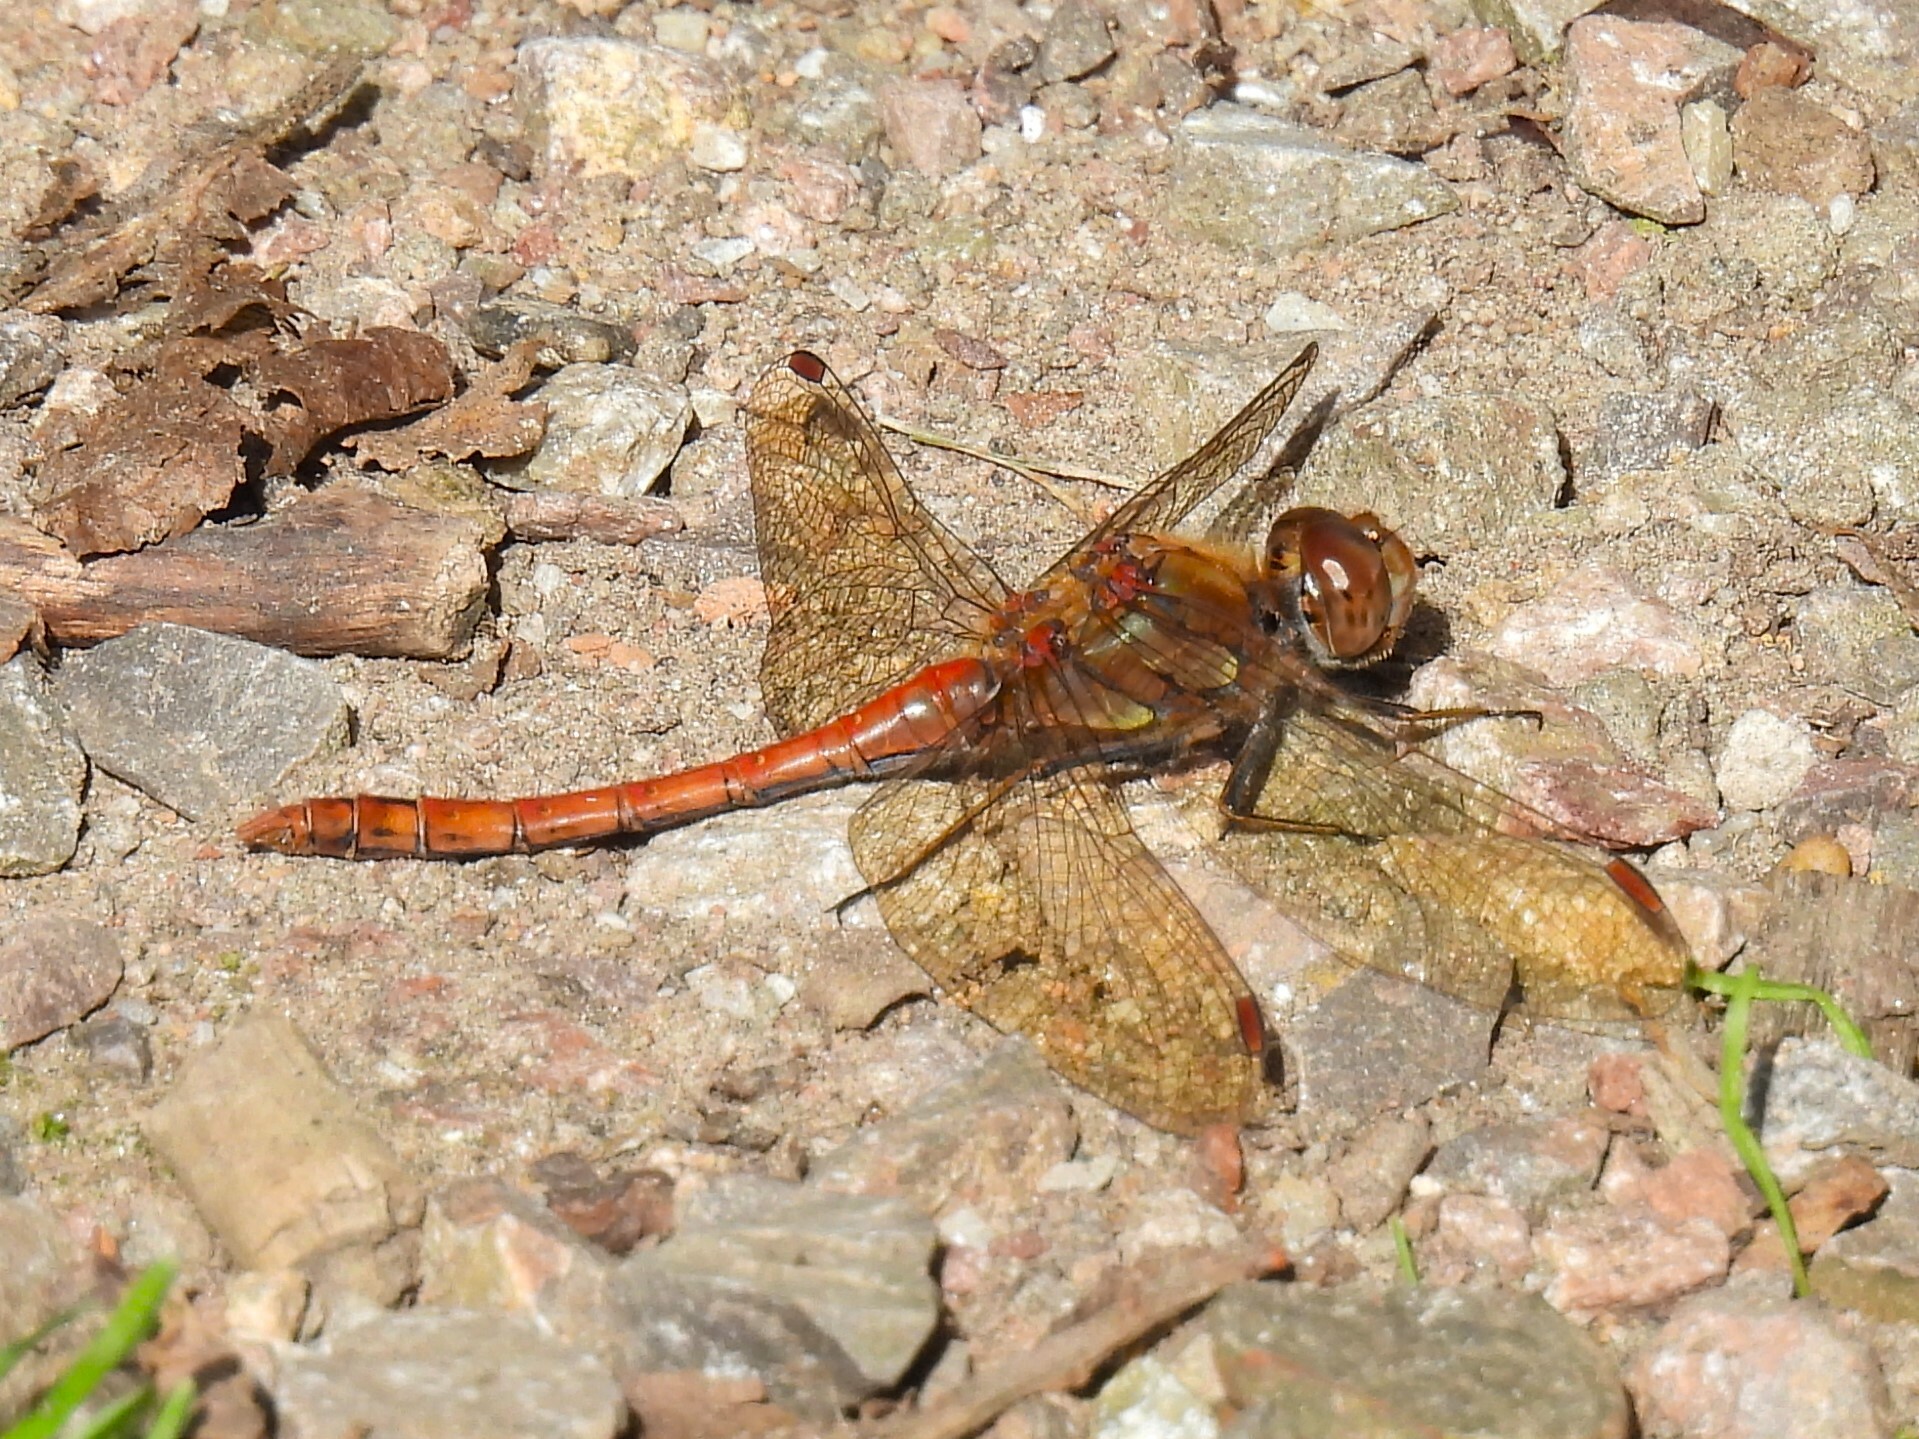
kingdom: Animalia
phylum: Arthropoda
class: Insecta
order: Odonata
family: Libellulidae
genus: Sympetrum
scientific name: Sympetrum striolatum
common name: Common darter
